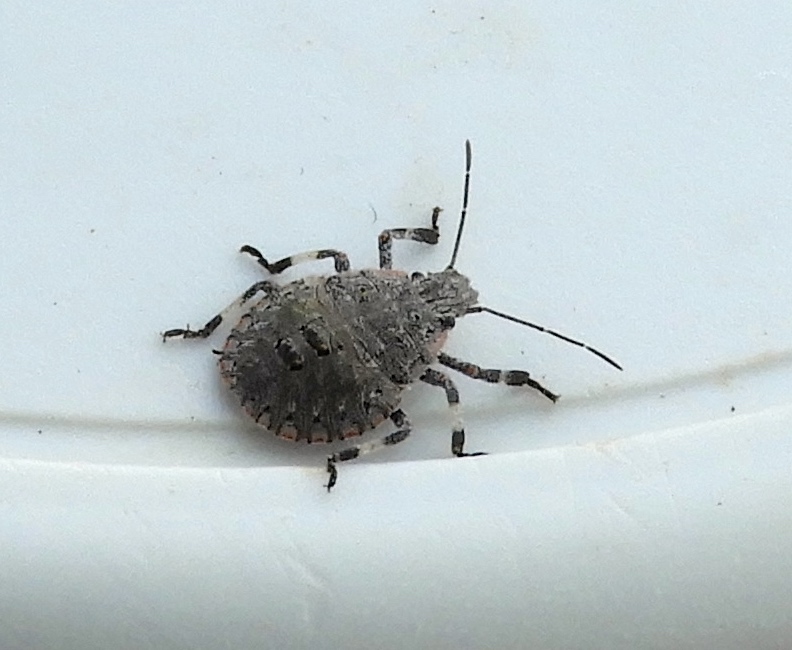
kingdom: Animalia
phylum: Arthropoda
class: Insecta
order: Hemiptera
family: Pentatomidae
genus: Brochymena
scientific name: Brochymena
